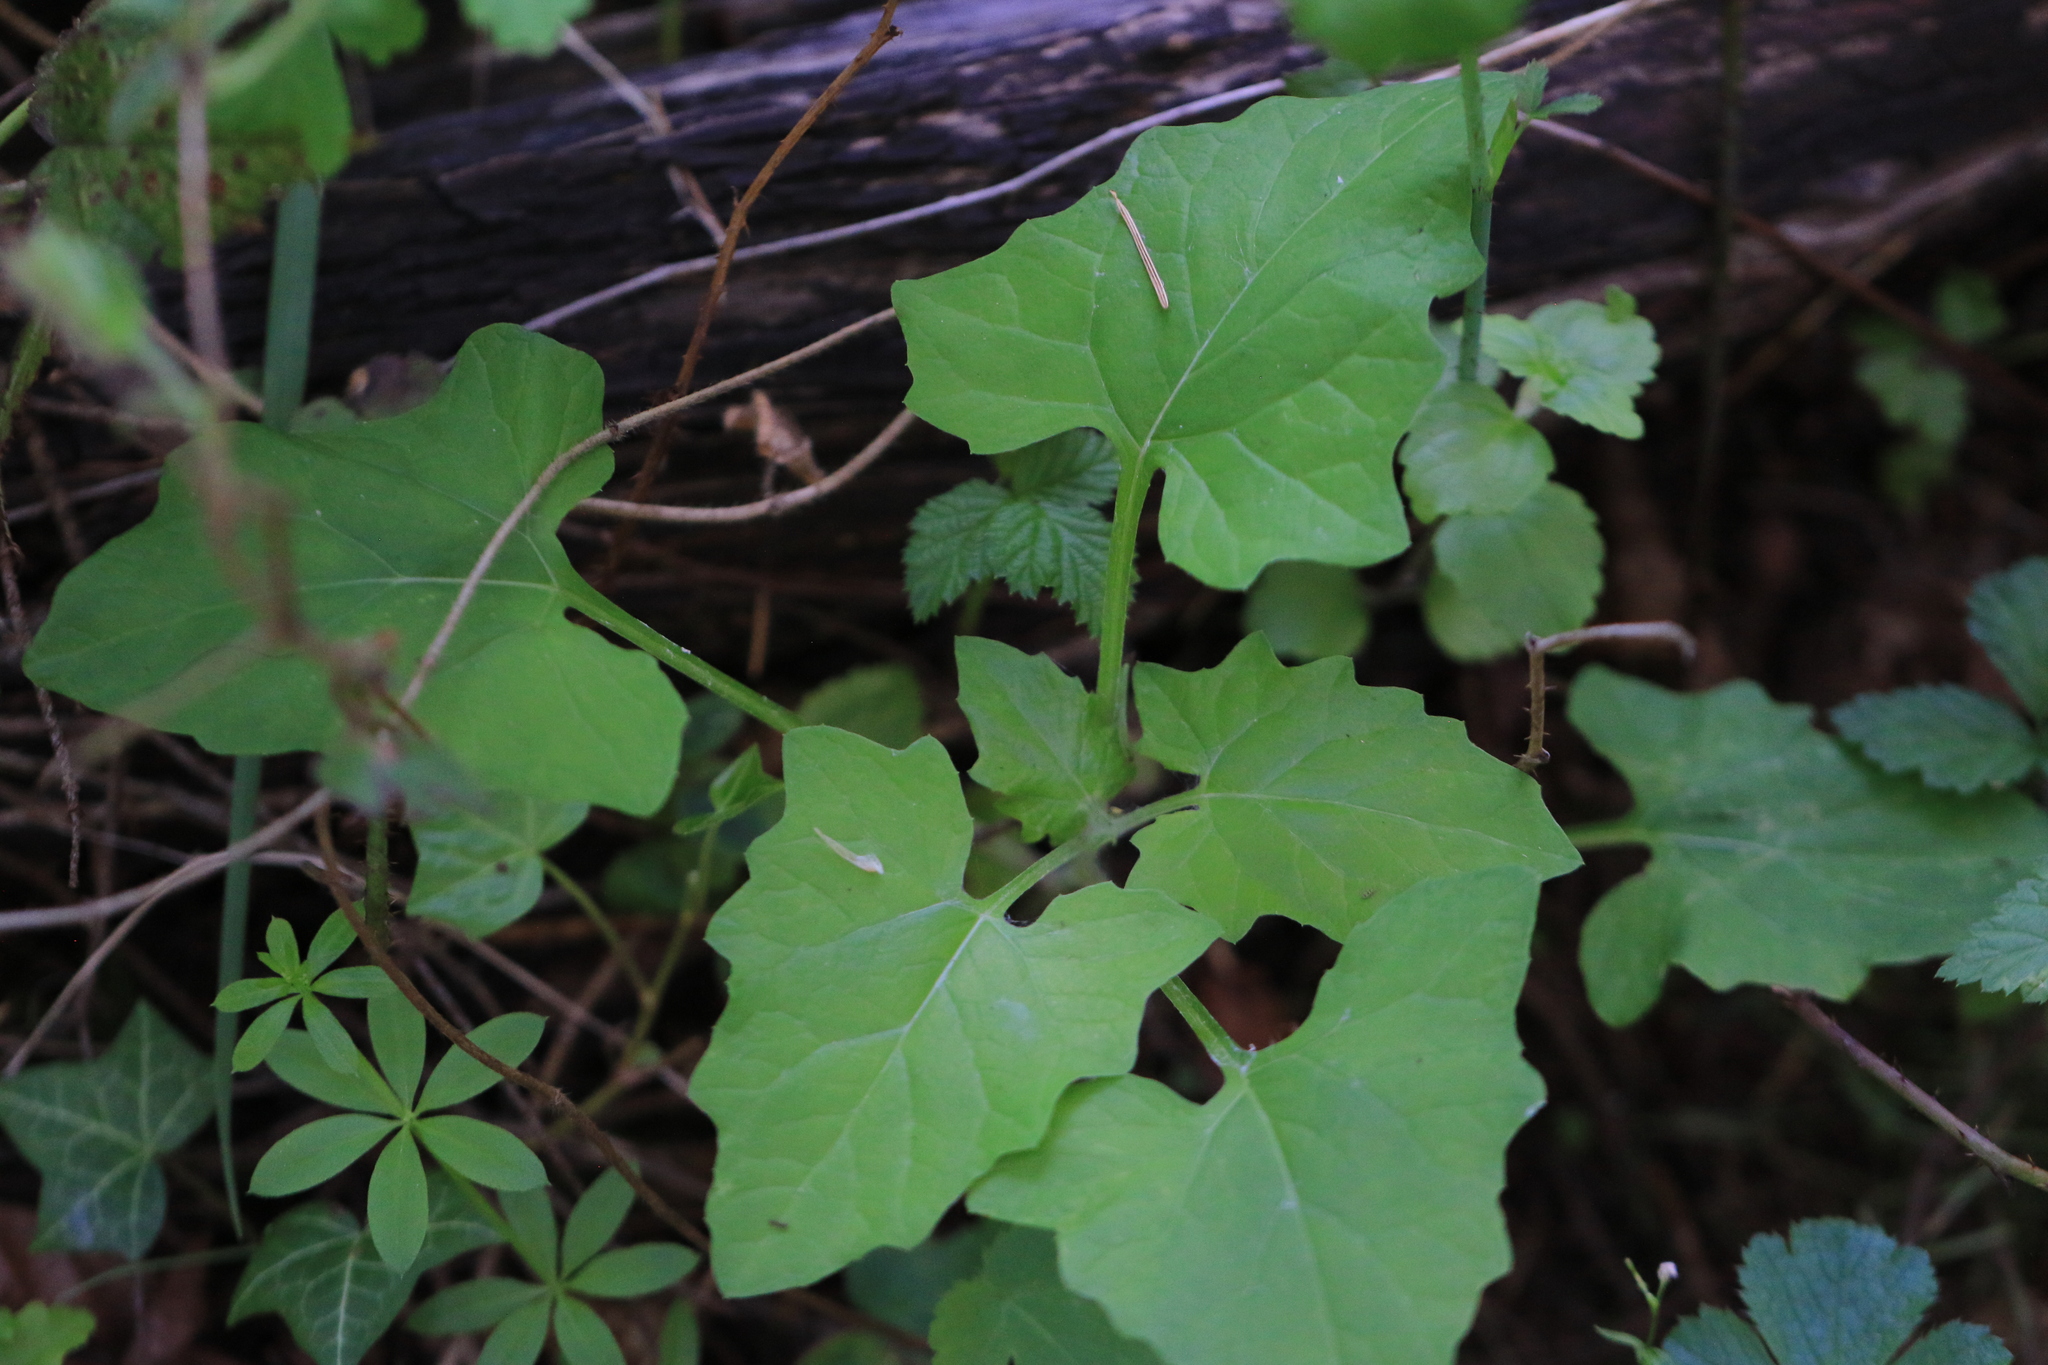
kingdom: Plantae
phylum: Tracheophyta
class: Magnoliopsida
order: Asterales
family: Asteraceae
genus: Adenocaulon
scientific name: Adenocaulon bicolor
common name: Trailplant
